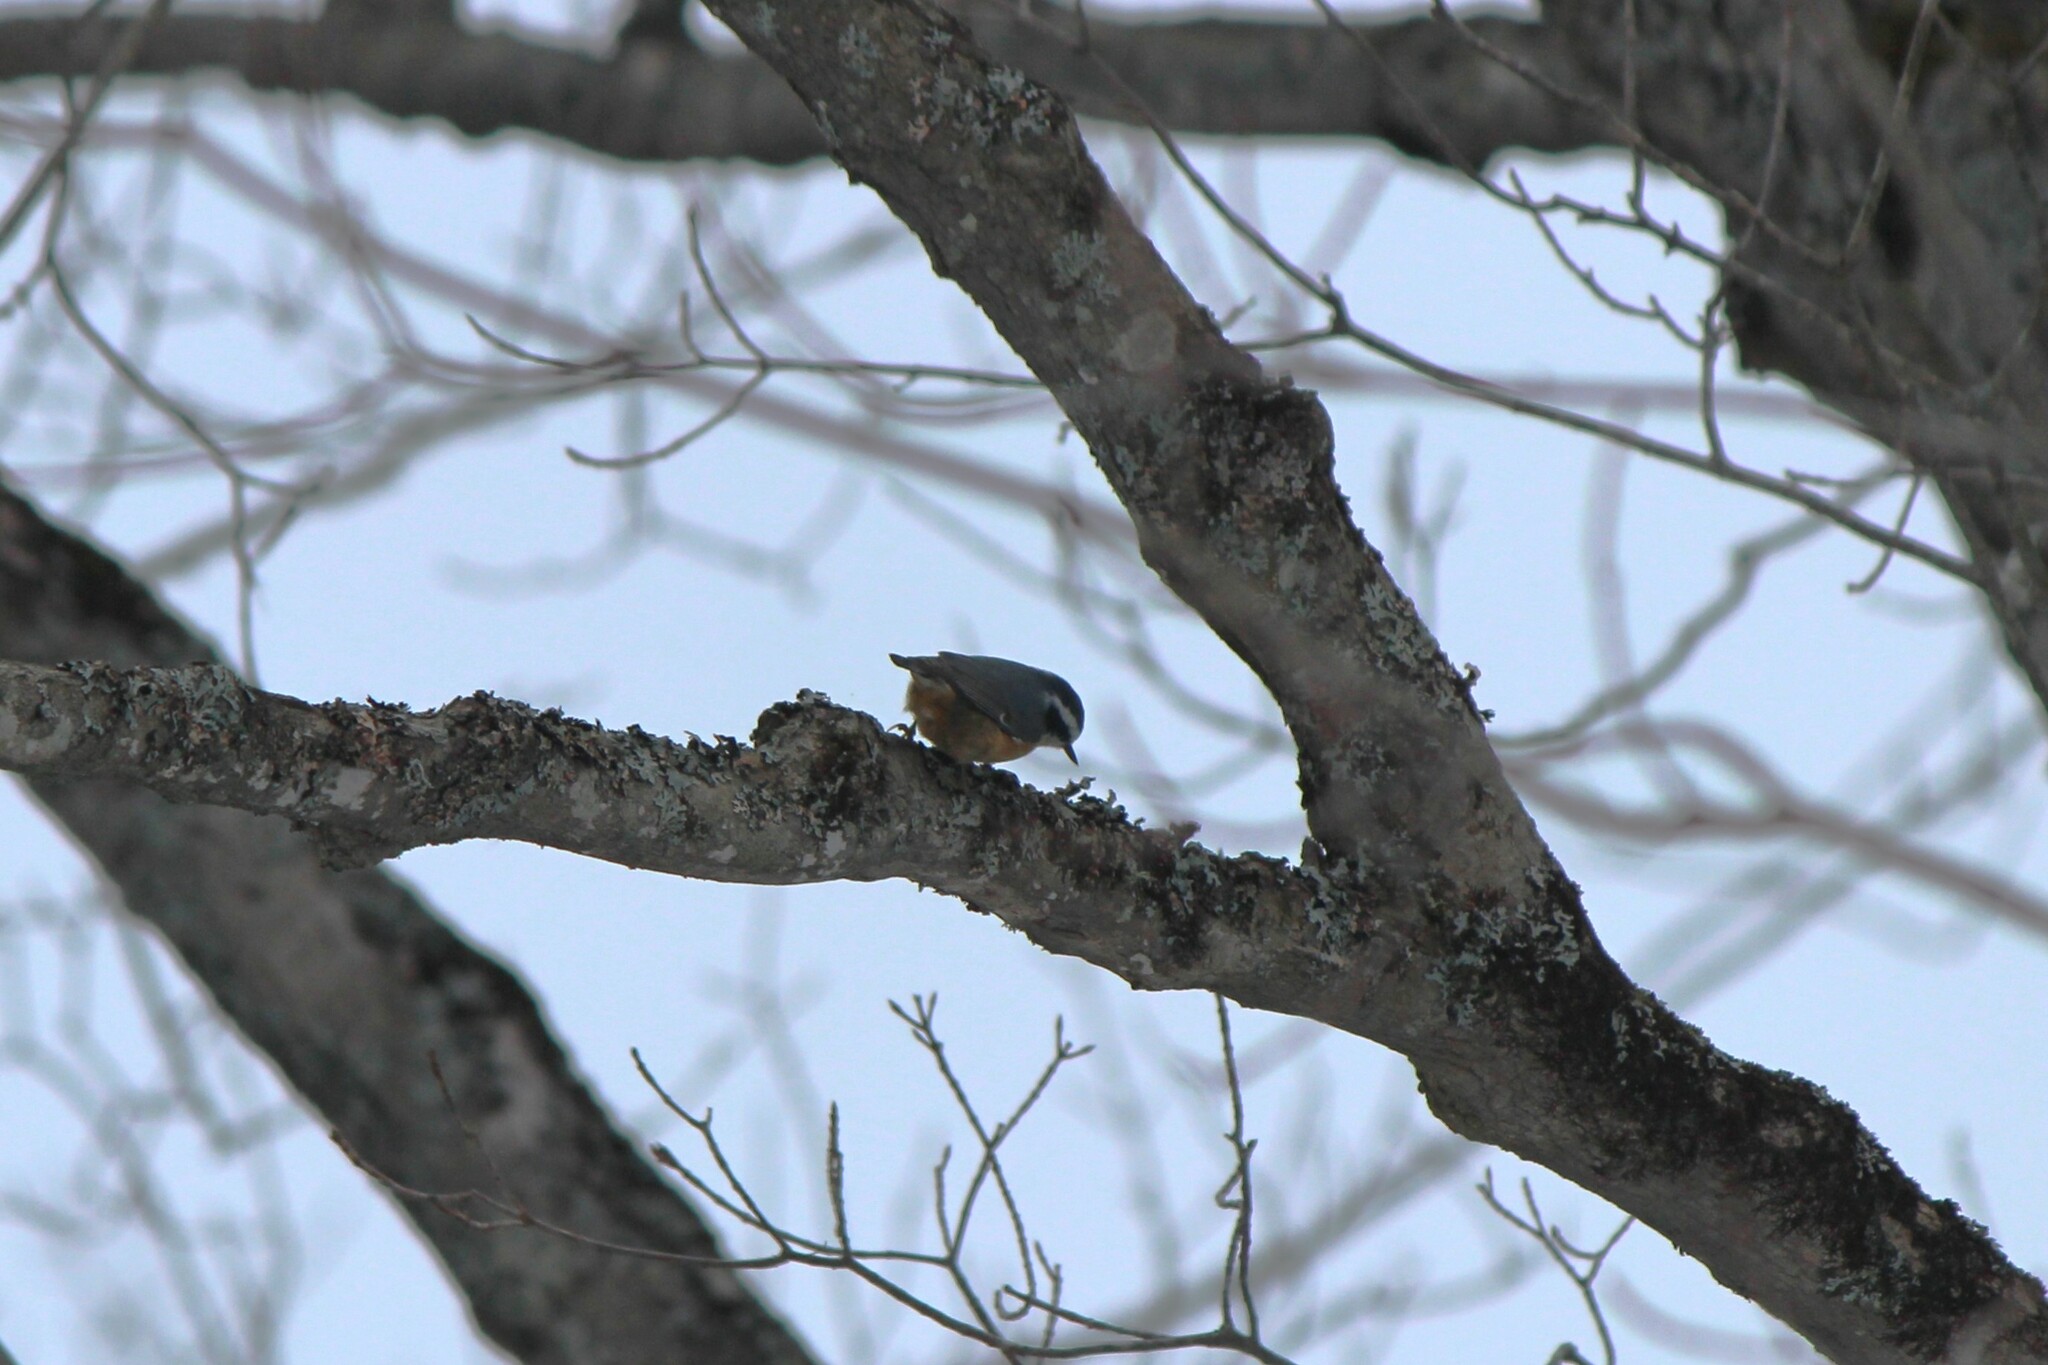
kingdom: Animalia
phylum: Chordata
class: Aves
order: Passeriformes
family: Sittidae
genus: Sitta
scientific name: Sitta canadensis
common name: Red-breasted nuthatch
